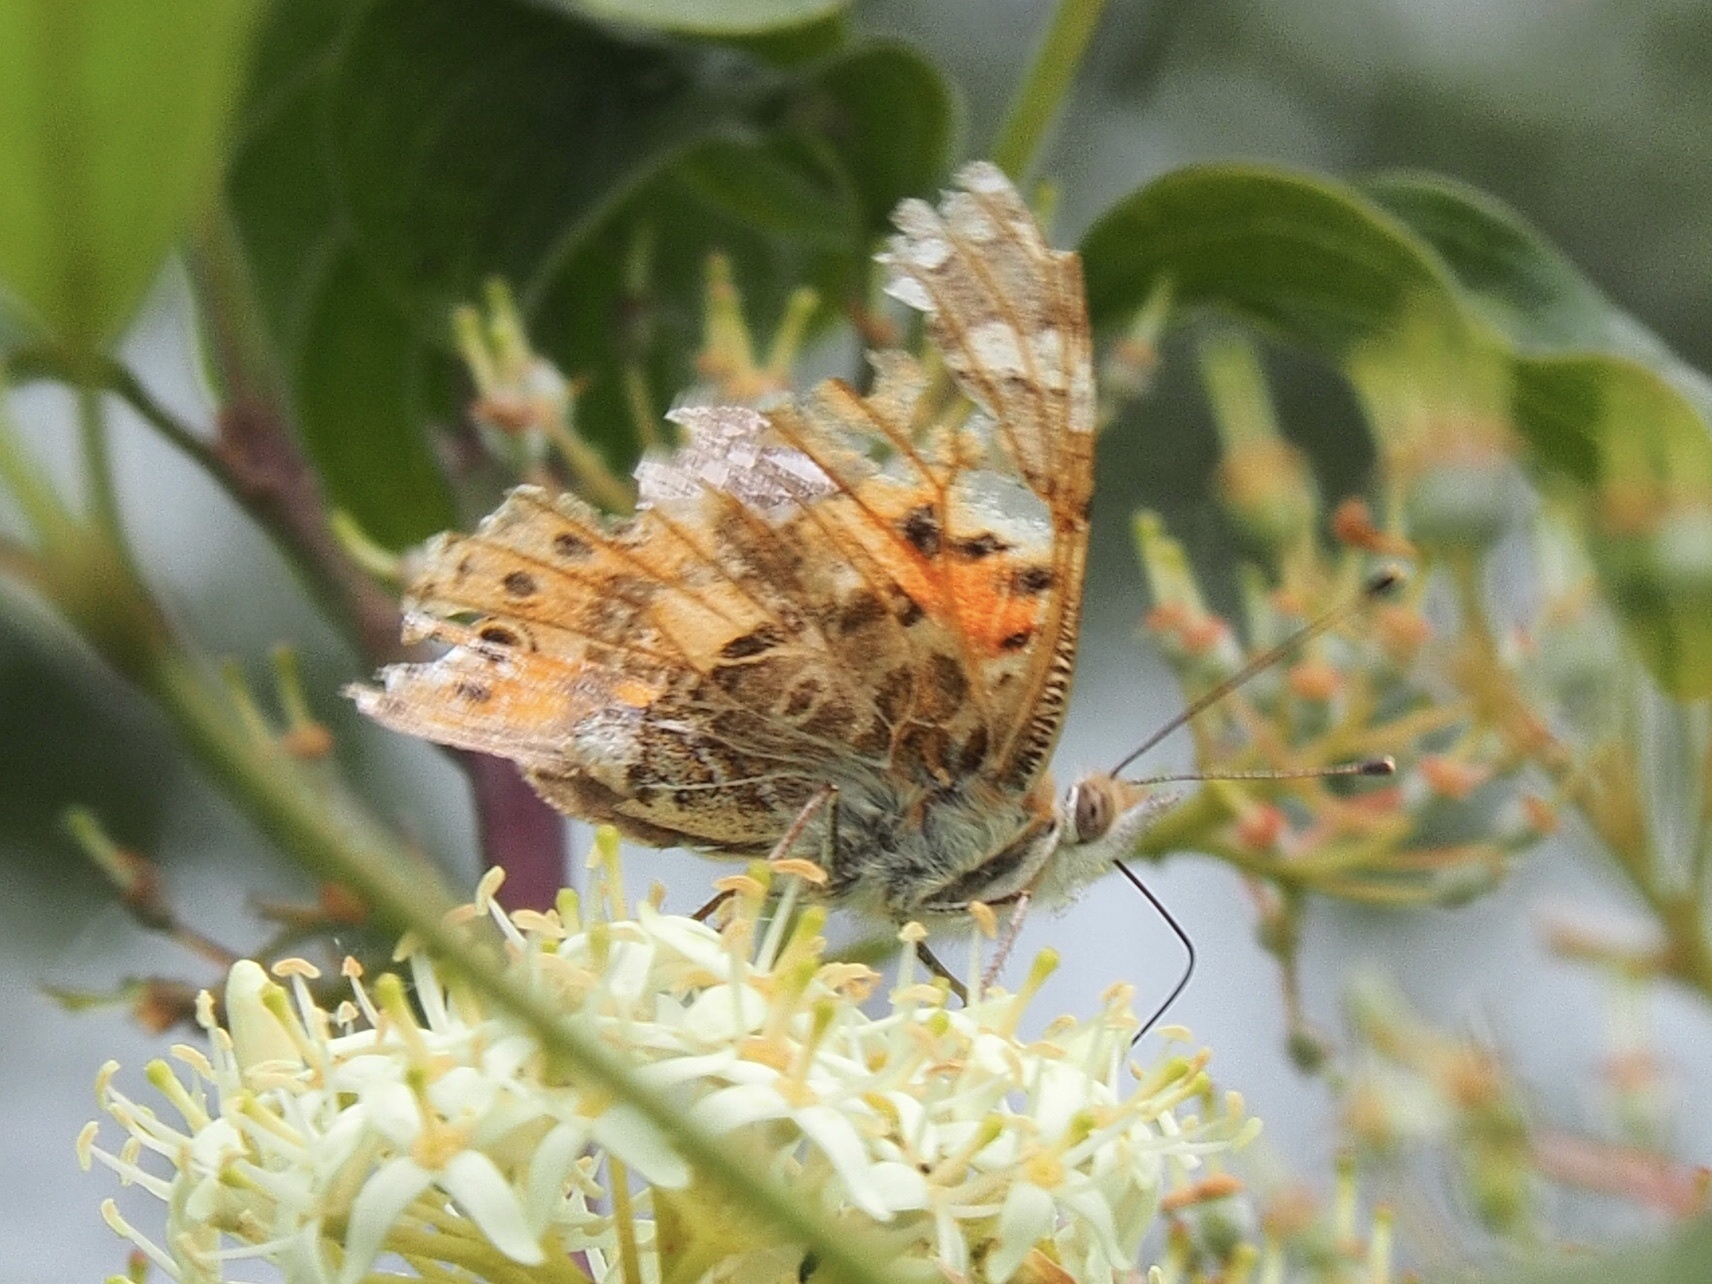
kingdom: Animalia
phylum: Arthropoda
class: Insecta
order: Lepidoptera
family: Nymphalidae
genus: Vanessa
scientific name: Vanessa cardui
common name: Painted lady
